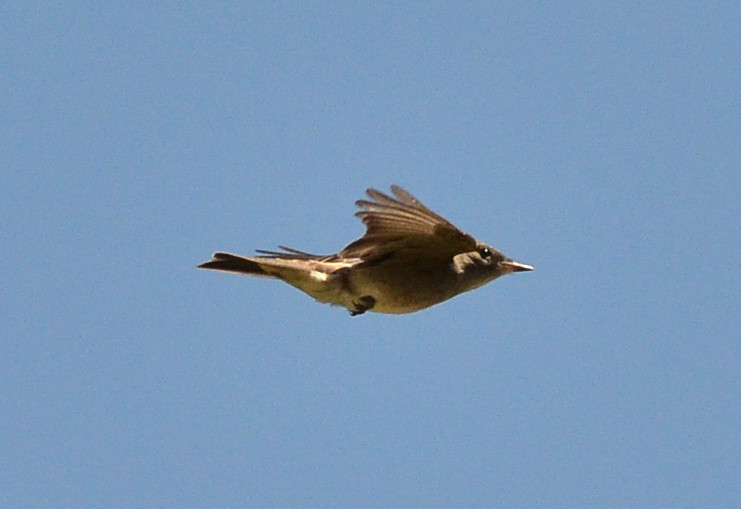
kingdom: Animalia
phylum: Chordata
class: Aves
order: Passeriformes
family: Paridae
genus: Baeolophus
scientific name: Baeolophus inornatus
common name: Oak titmouse
